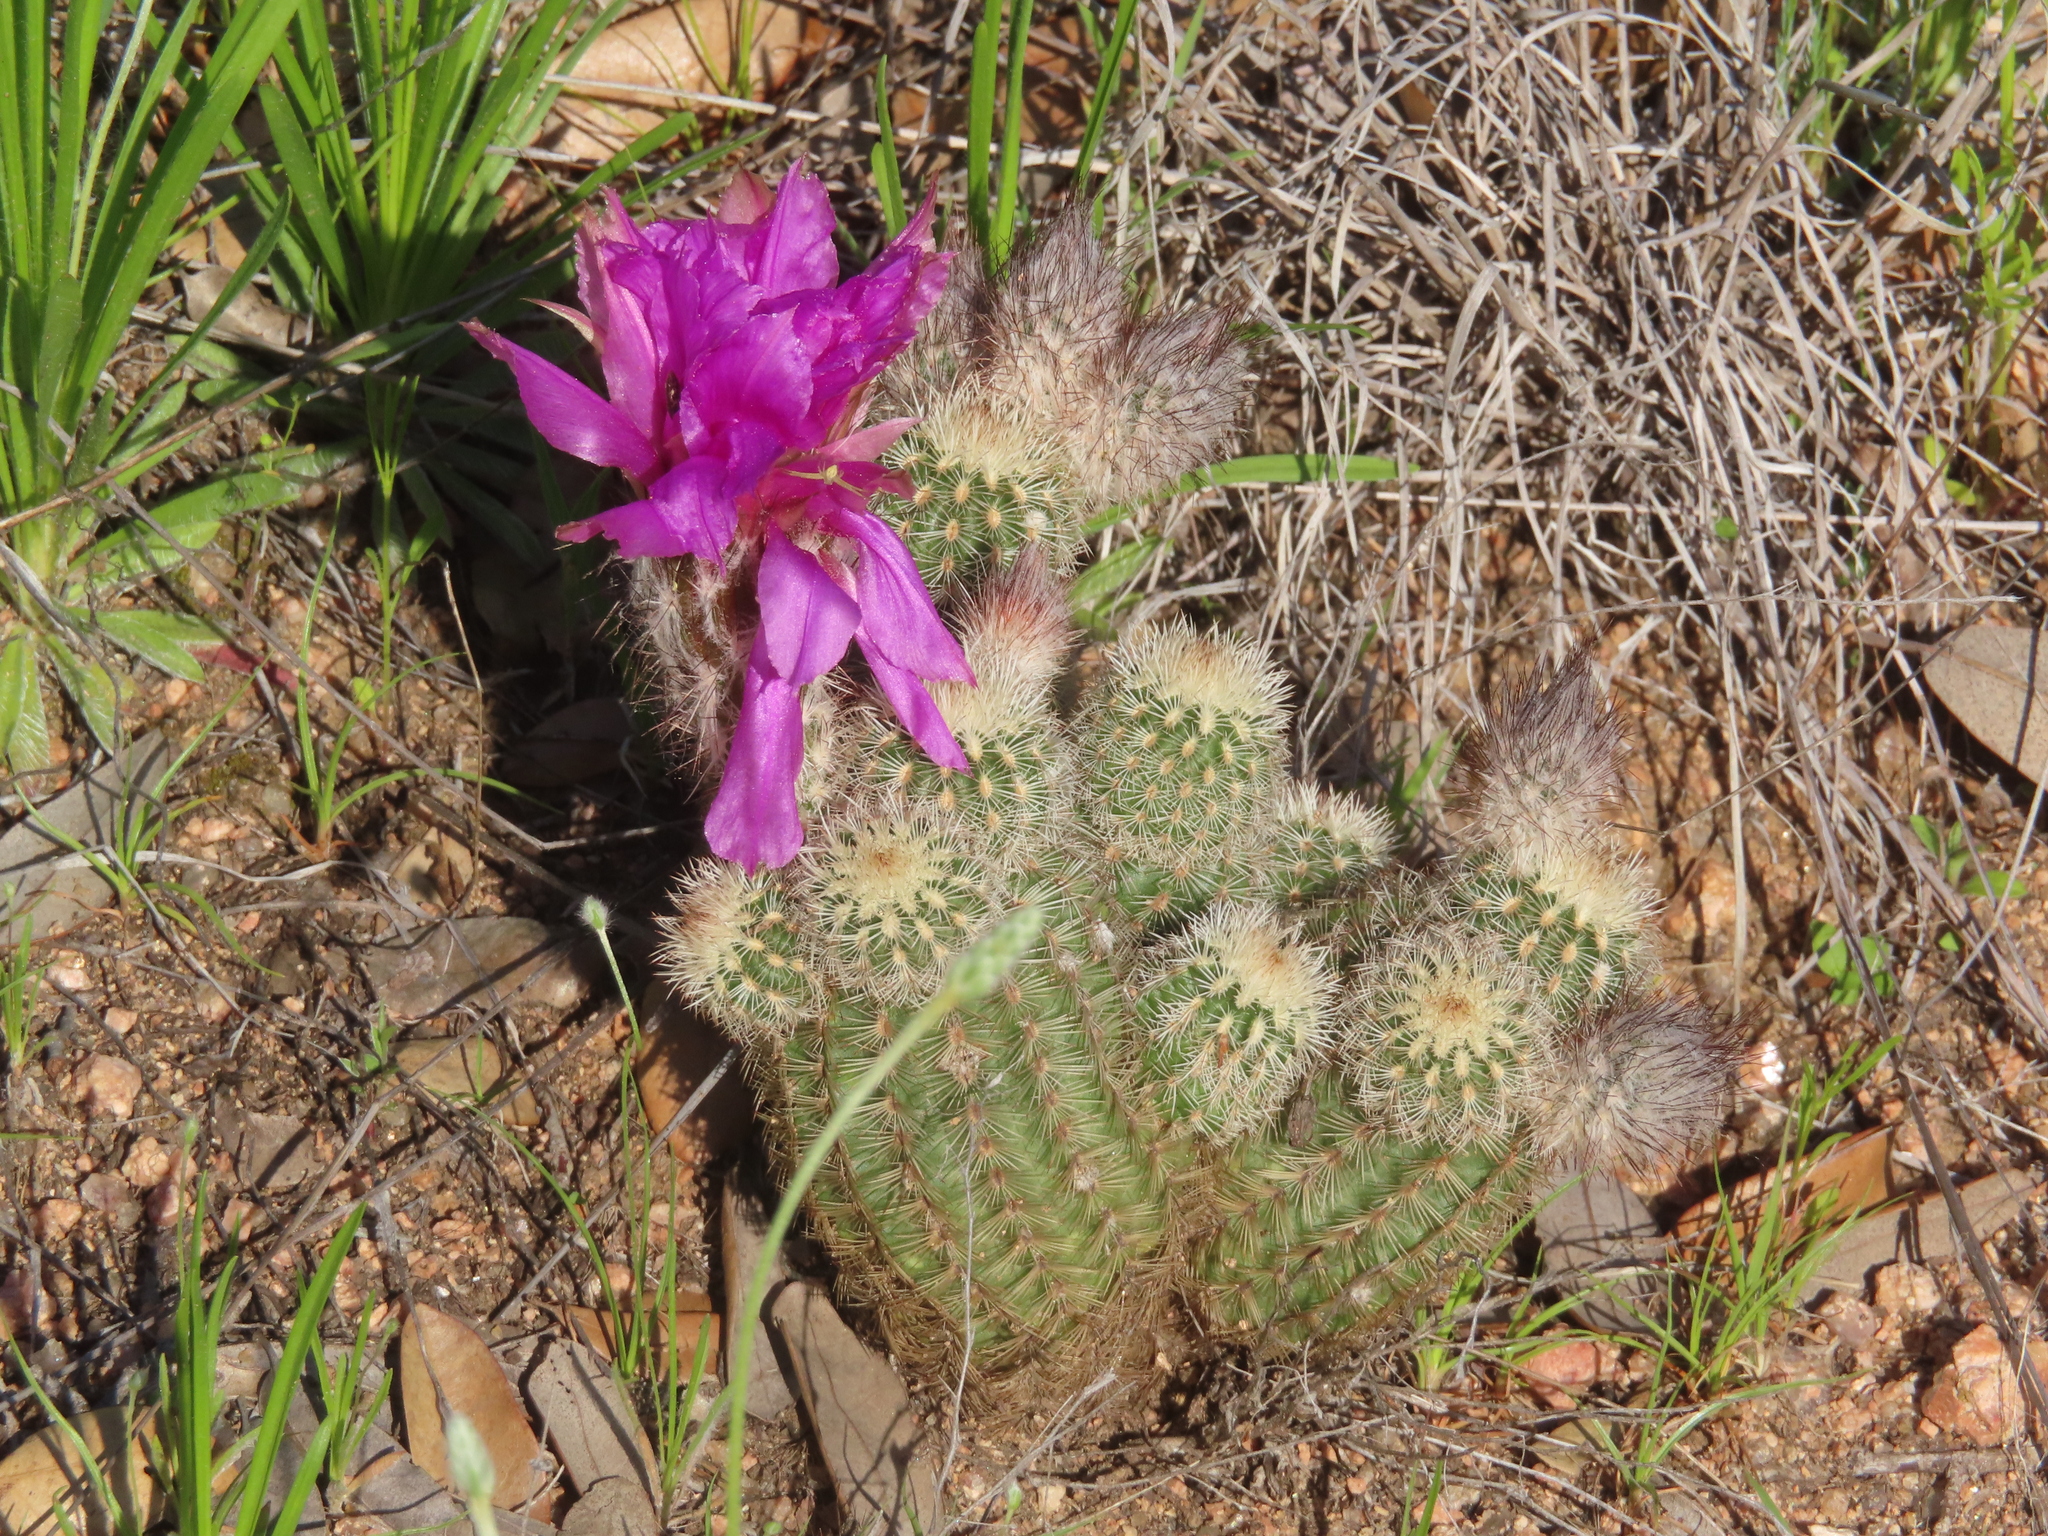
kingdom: Plantae
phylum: Tracheophyta
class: Magnoliopsida
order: Caryophyllales
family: Cactaceae
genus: Echinocereus
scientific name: Echinocereus reichenbachii
